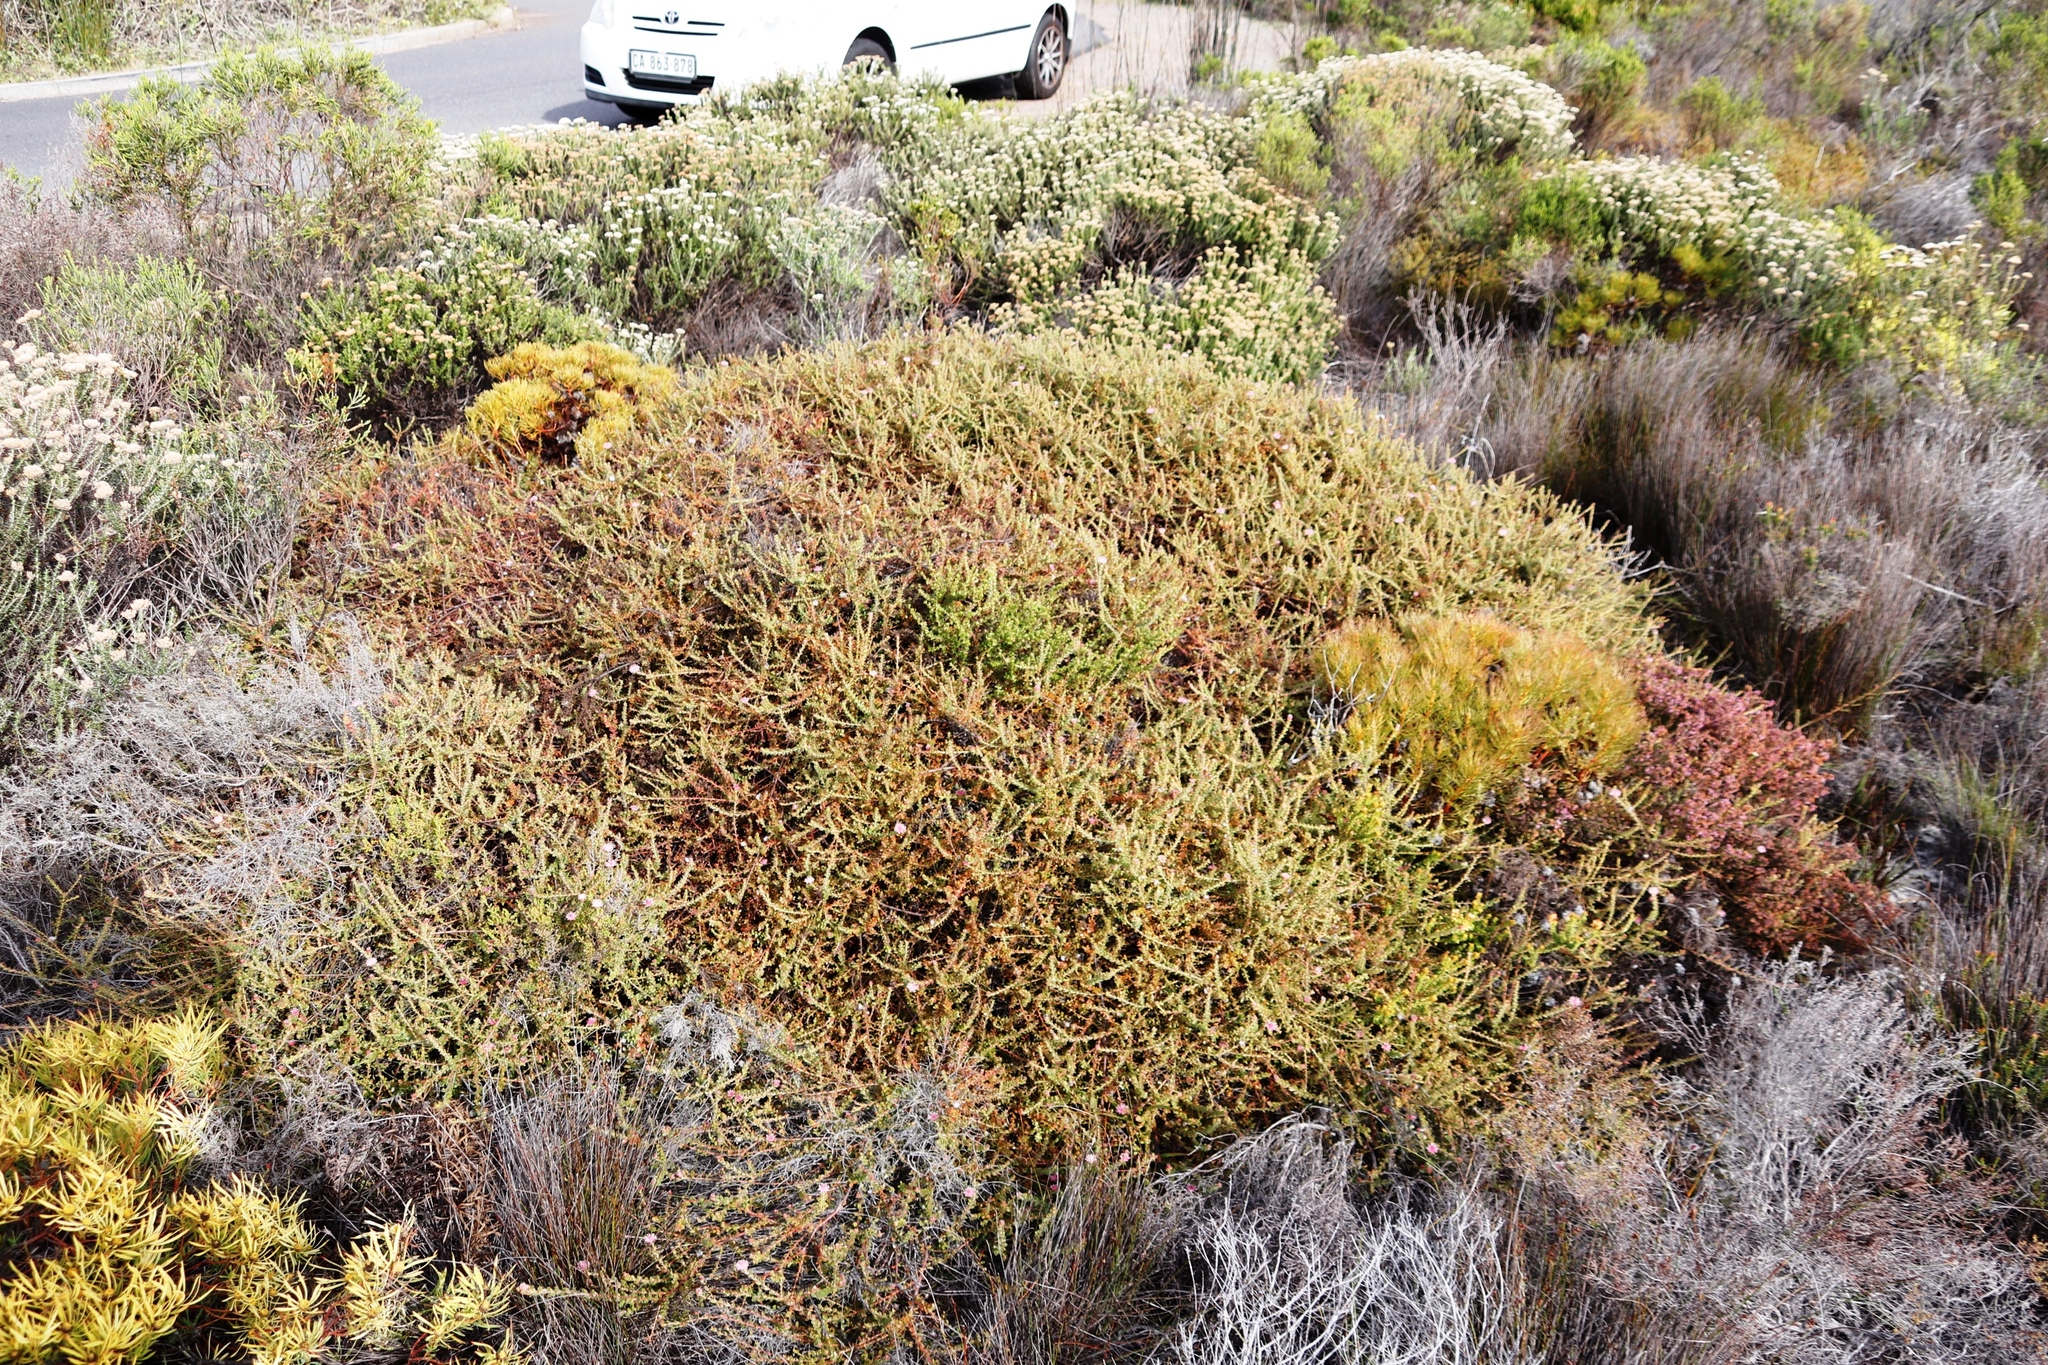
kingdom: Plantae
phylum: Tracheophyta
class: Magnoliopsida
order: Proteales
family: Proteaceae
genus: Diastella
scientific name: Diastella divaricata
